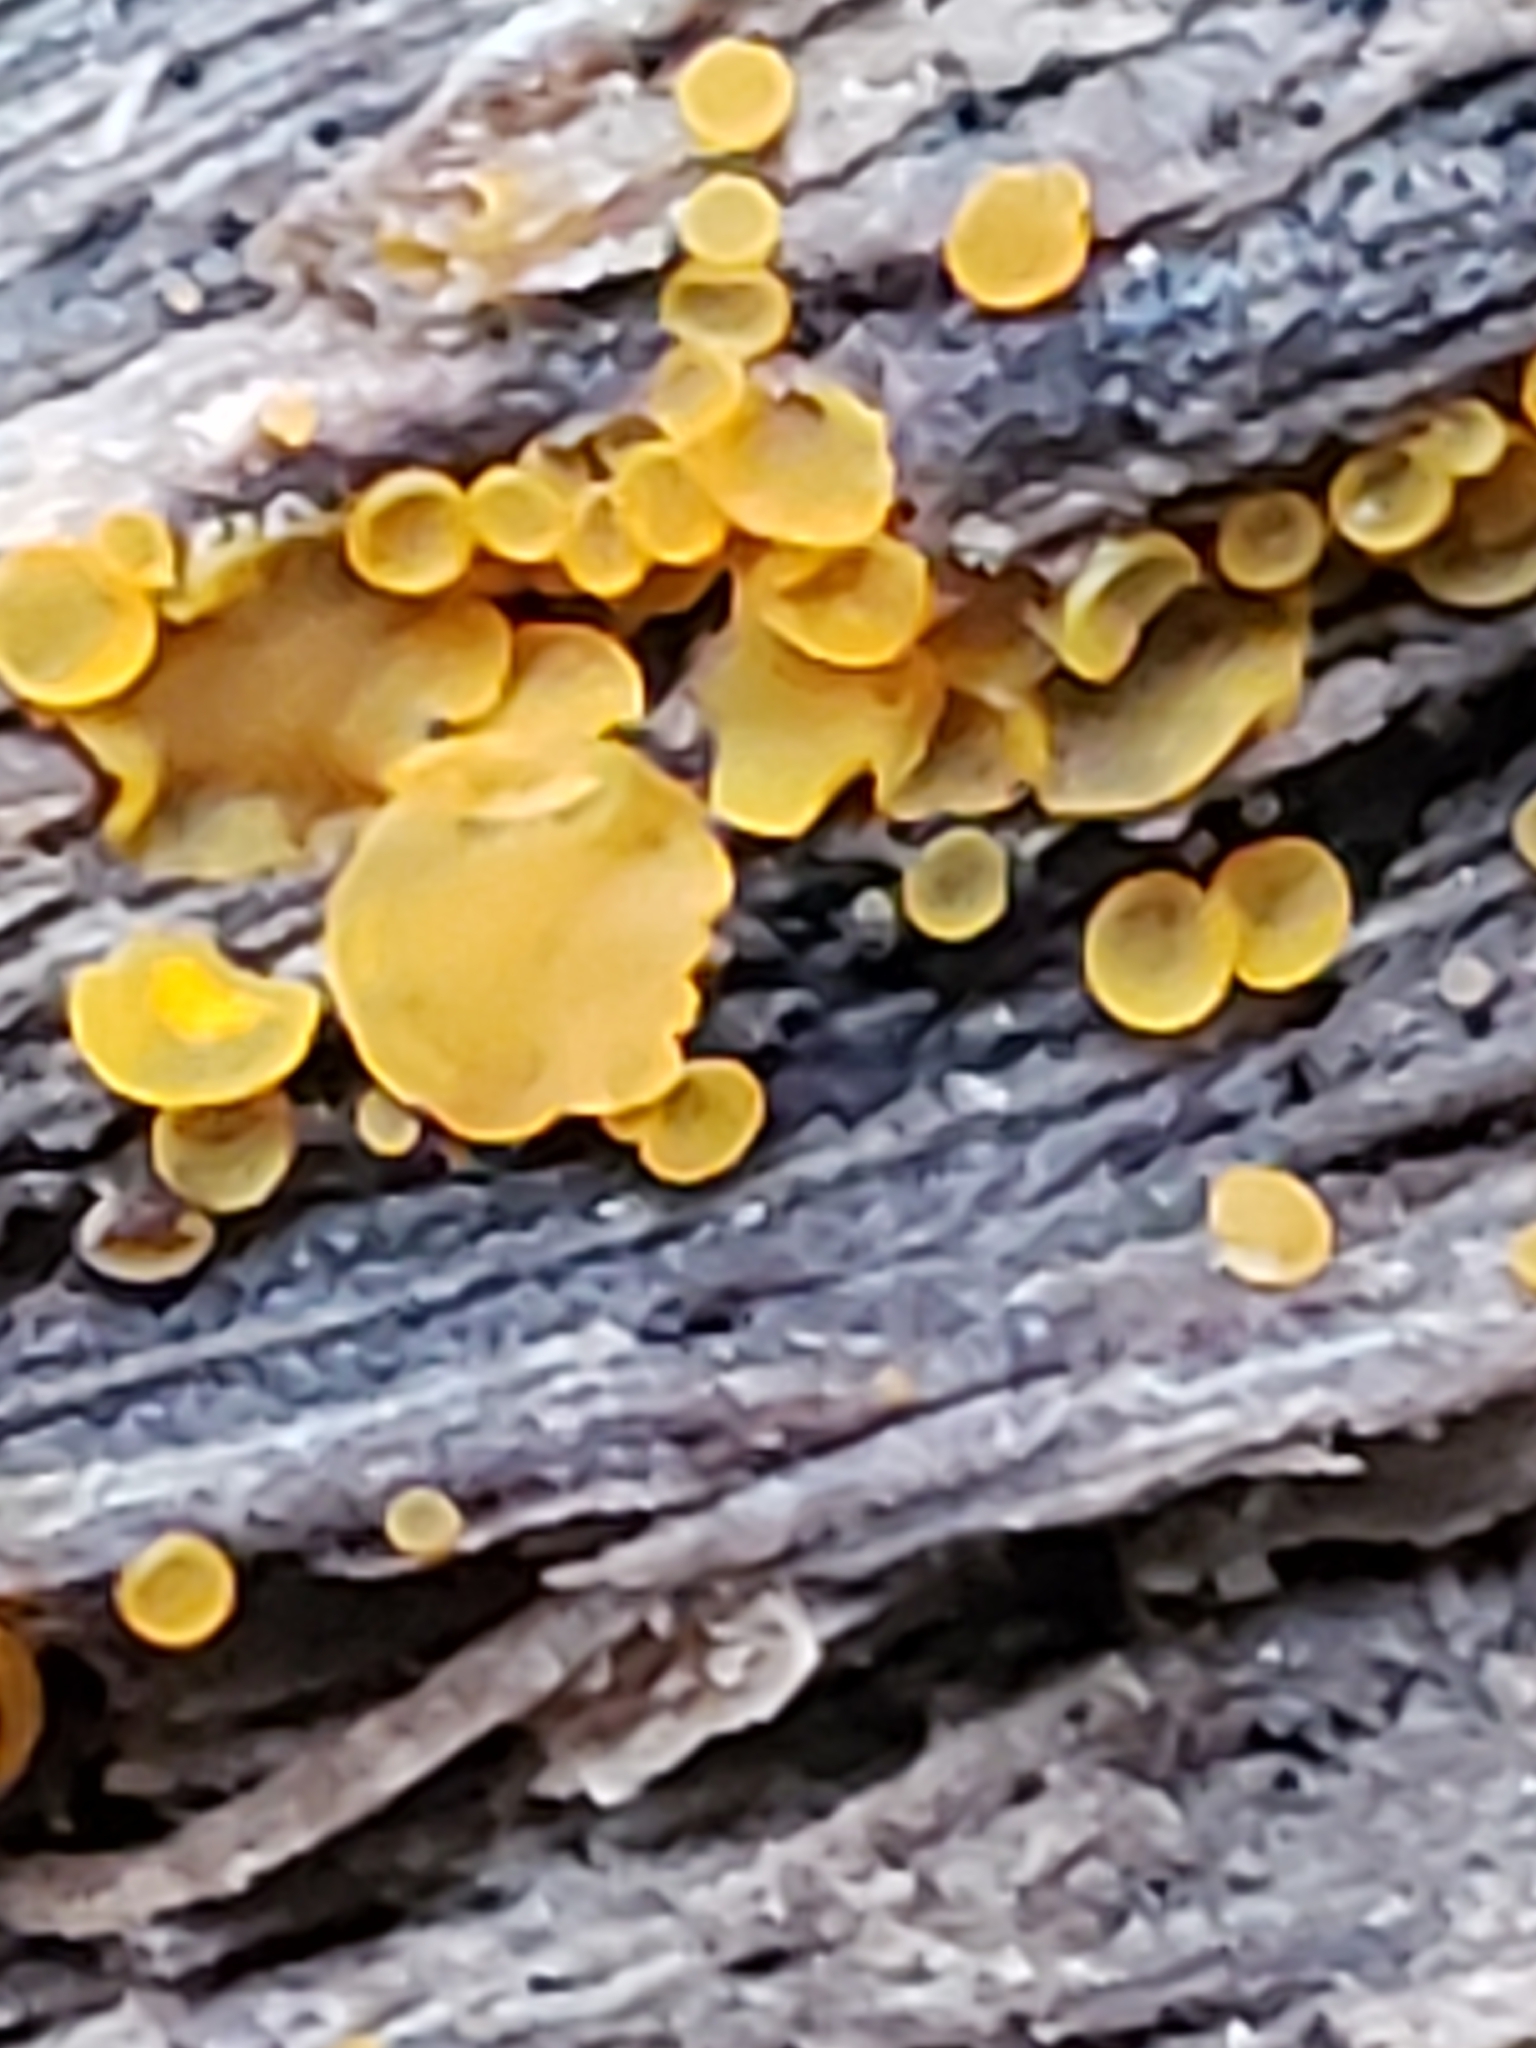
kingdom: Fungi
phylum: Ascomycota
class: Orbiliomycetes
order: Orbiliales
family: Orbiliaceae
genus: Orbilia
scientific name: Orbilia
